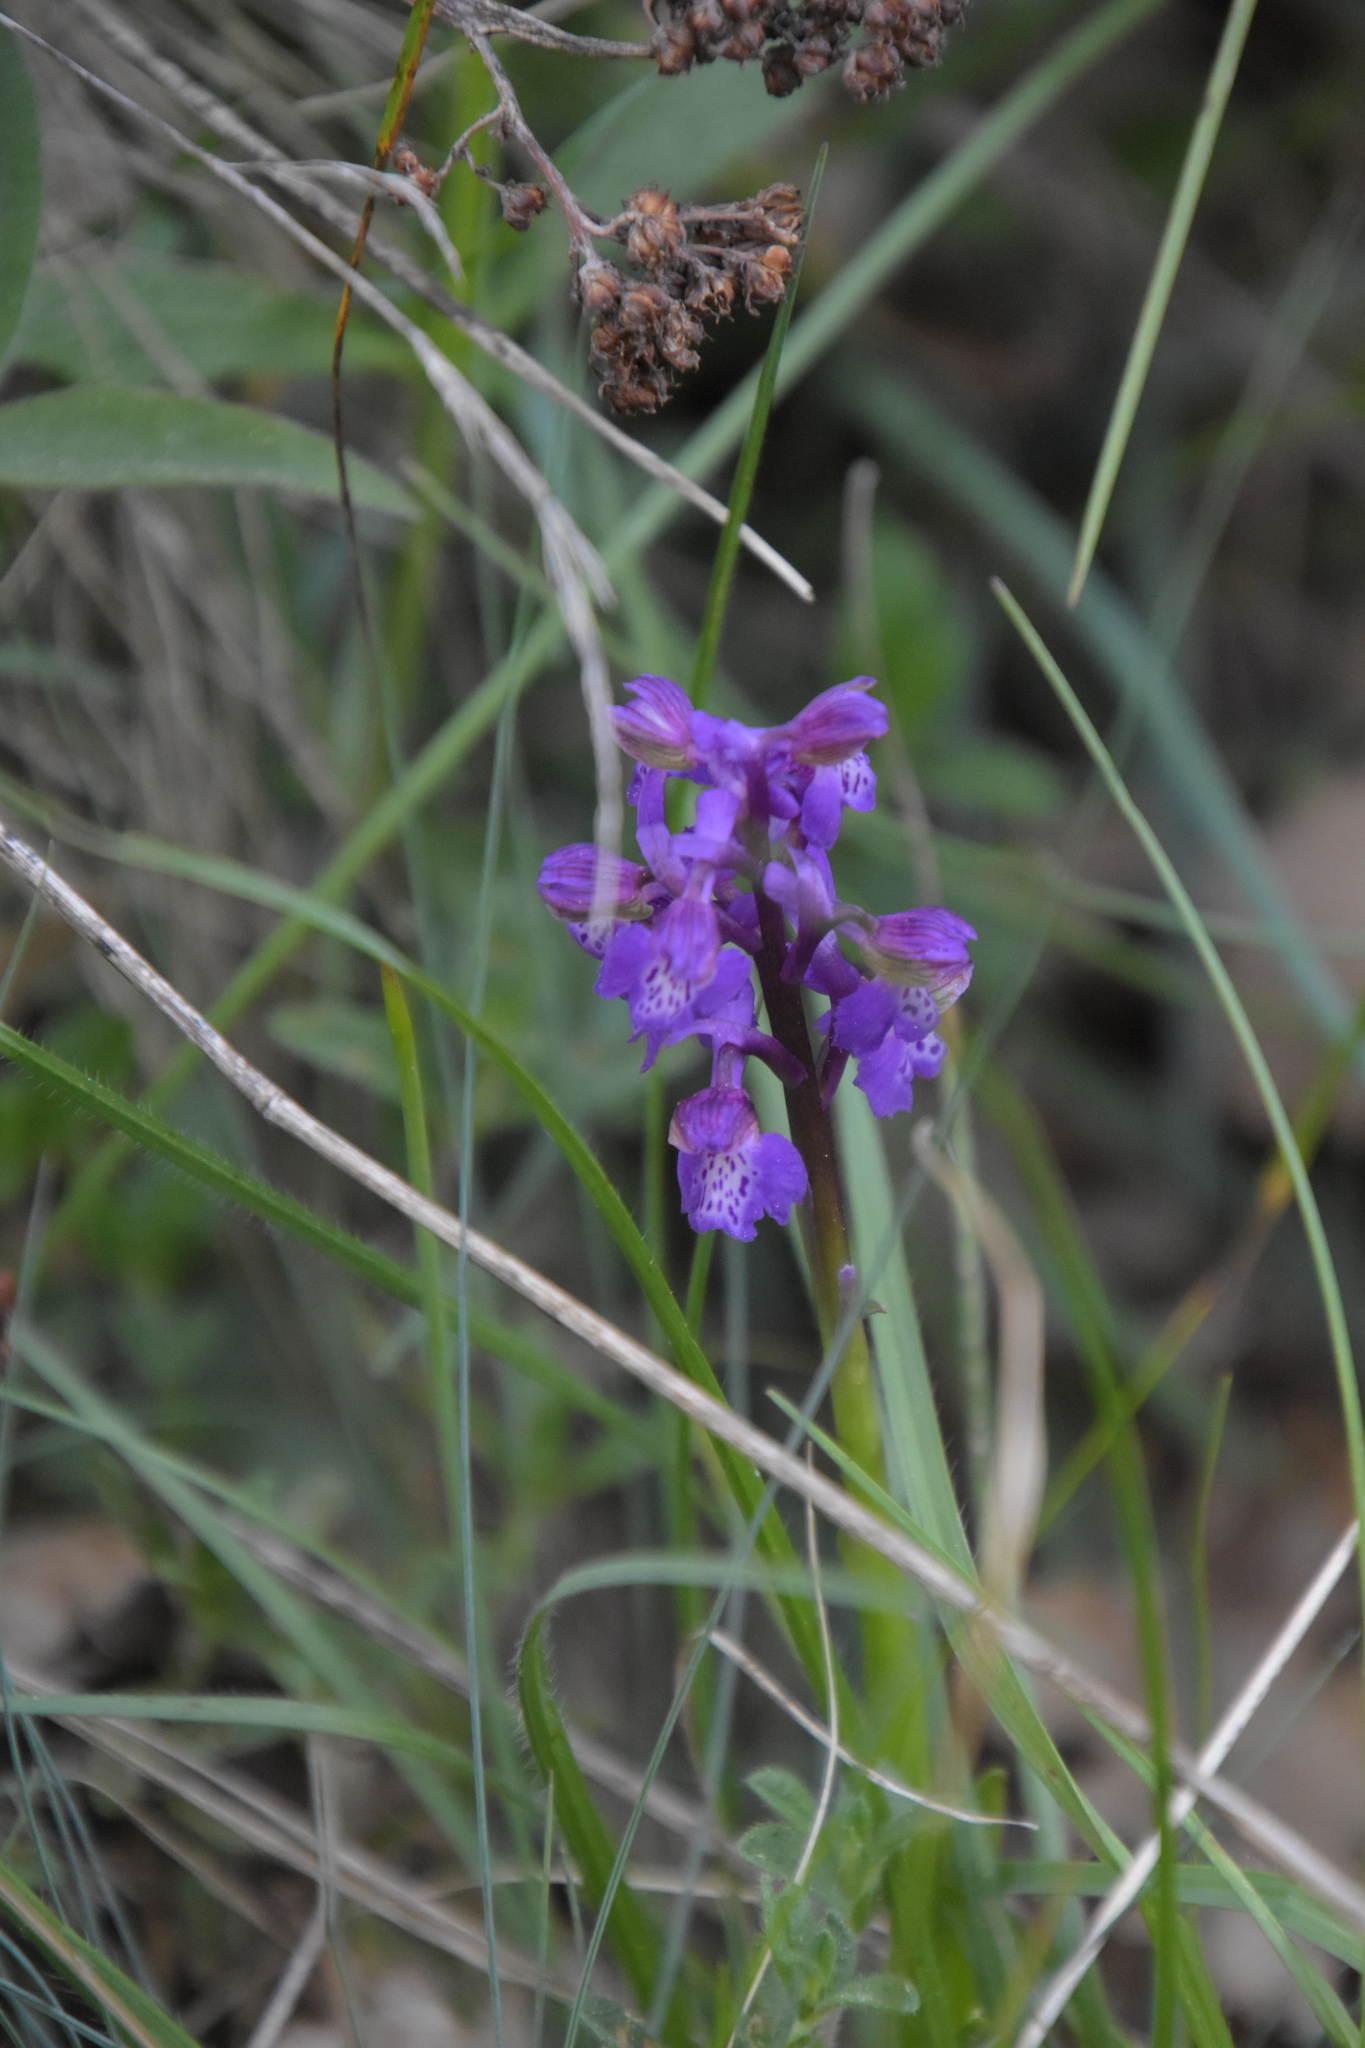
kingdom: Plantae
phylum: Tracheophyta
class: Liliopsida
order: Asparagales
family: Orchidaceae
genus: Anacamptis
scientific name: Anacamptis morio
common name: Green-winged orchid
